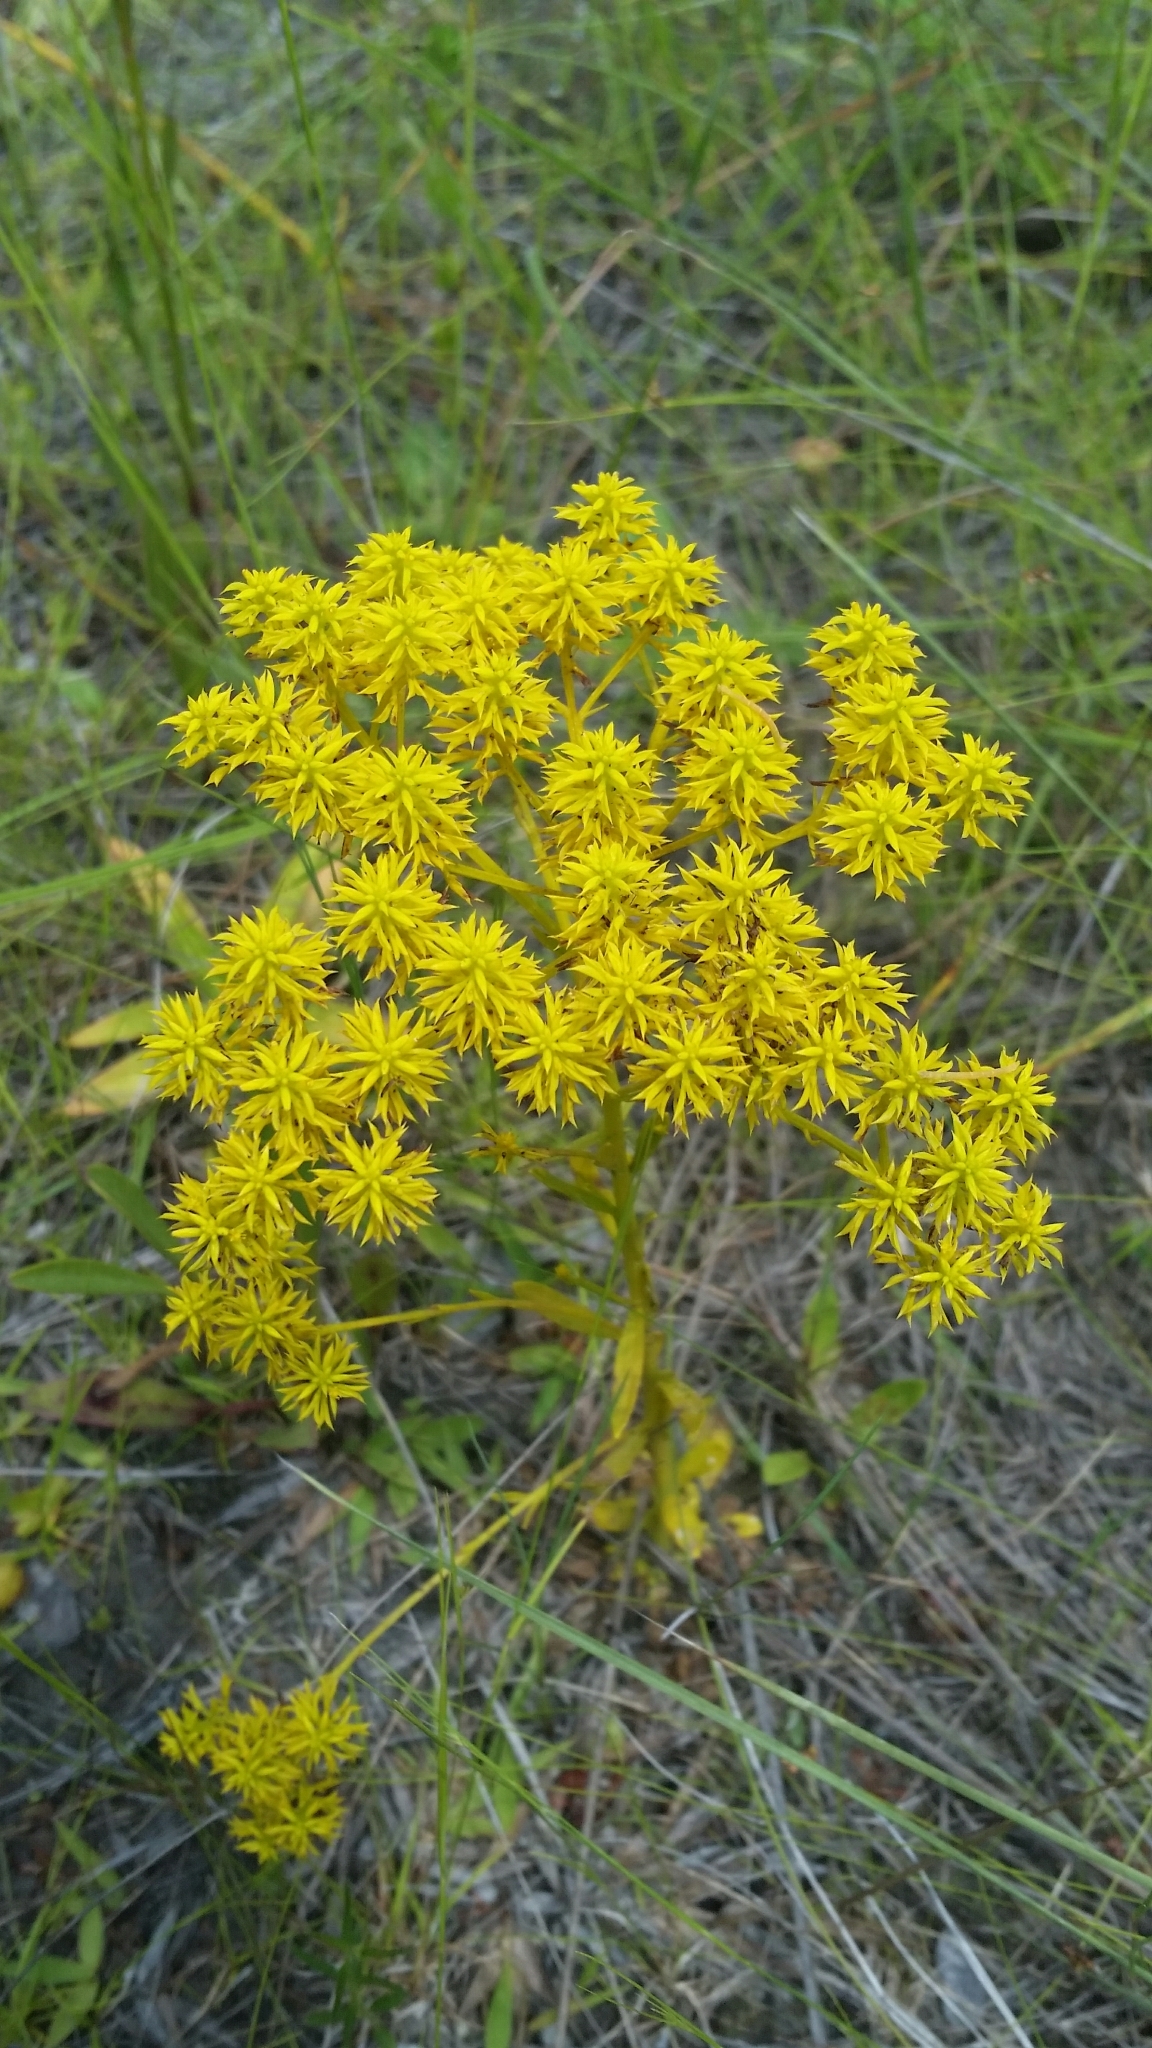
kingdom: Plantae
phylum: Tracheophyta
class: Magnoliopsida
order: Fabales
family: Polygalaceae
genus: Polygala
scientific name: Polygala ramosa
